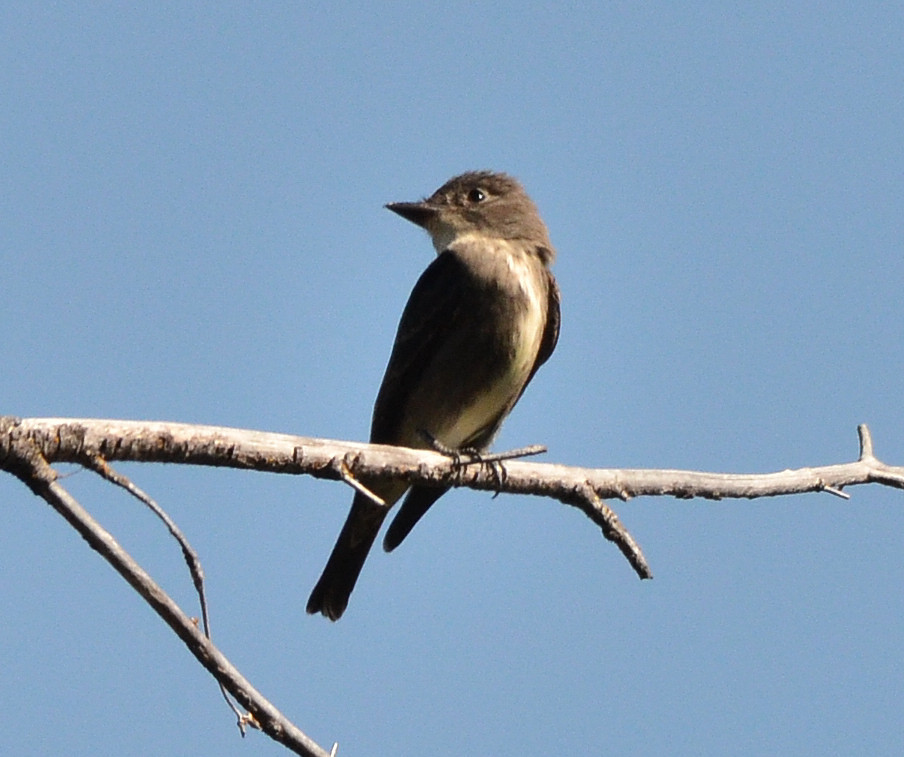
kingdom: Animalia
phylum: Chordata
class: Aves
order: Passeriformes
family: Tyrannidae
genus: Contopus
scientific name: Contopus cooperi
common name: Olive-sided flycatcher
